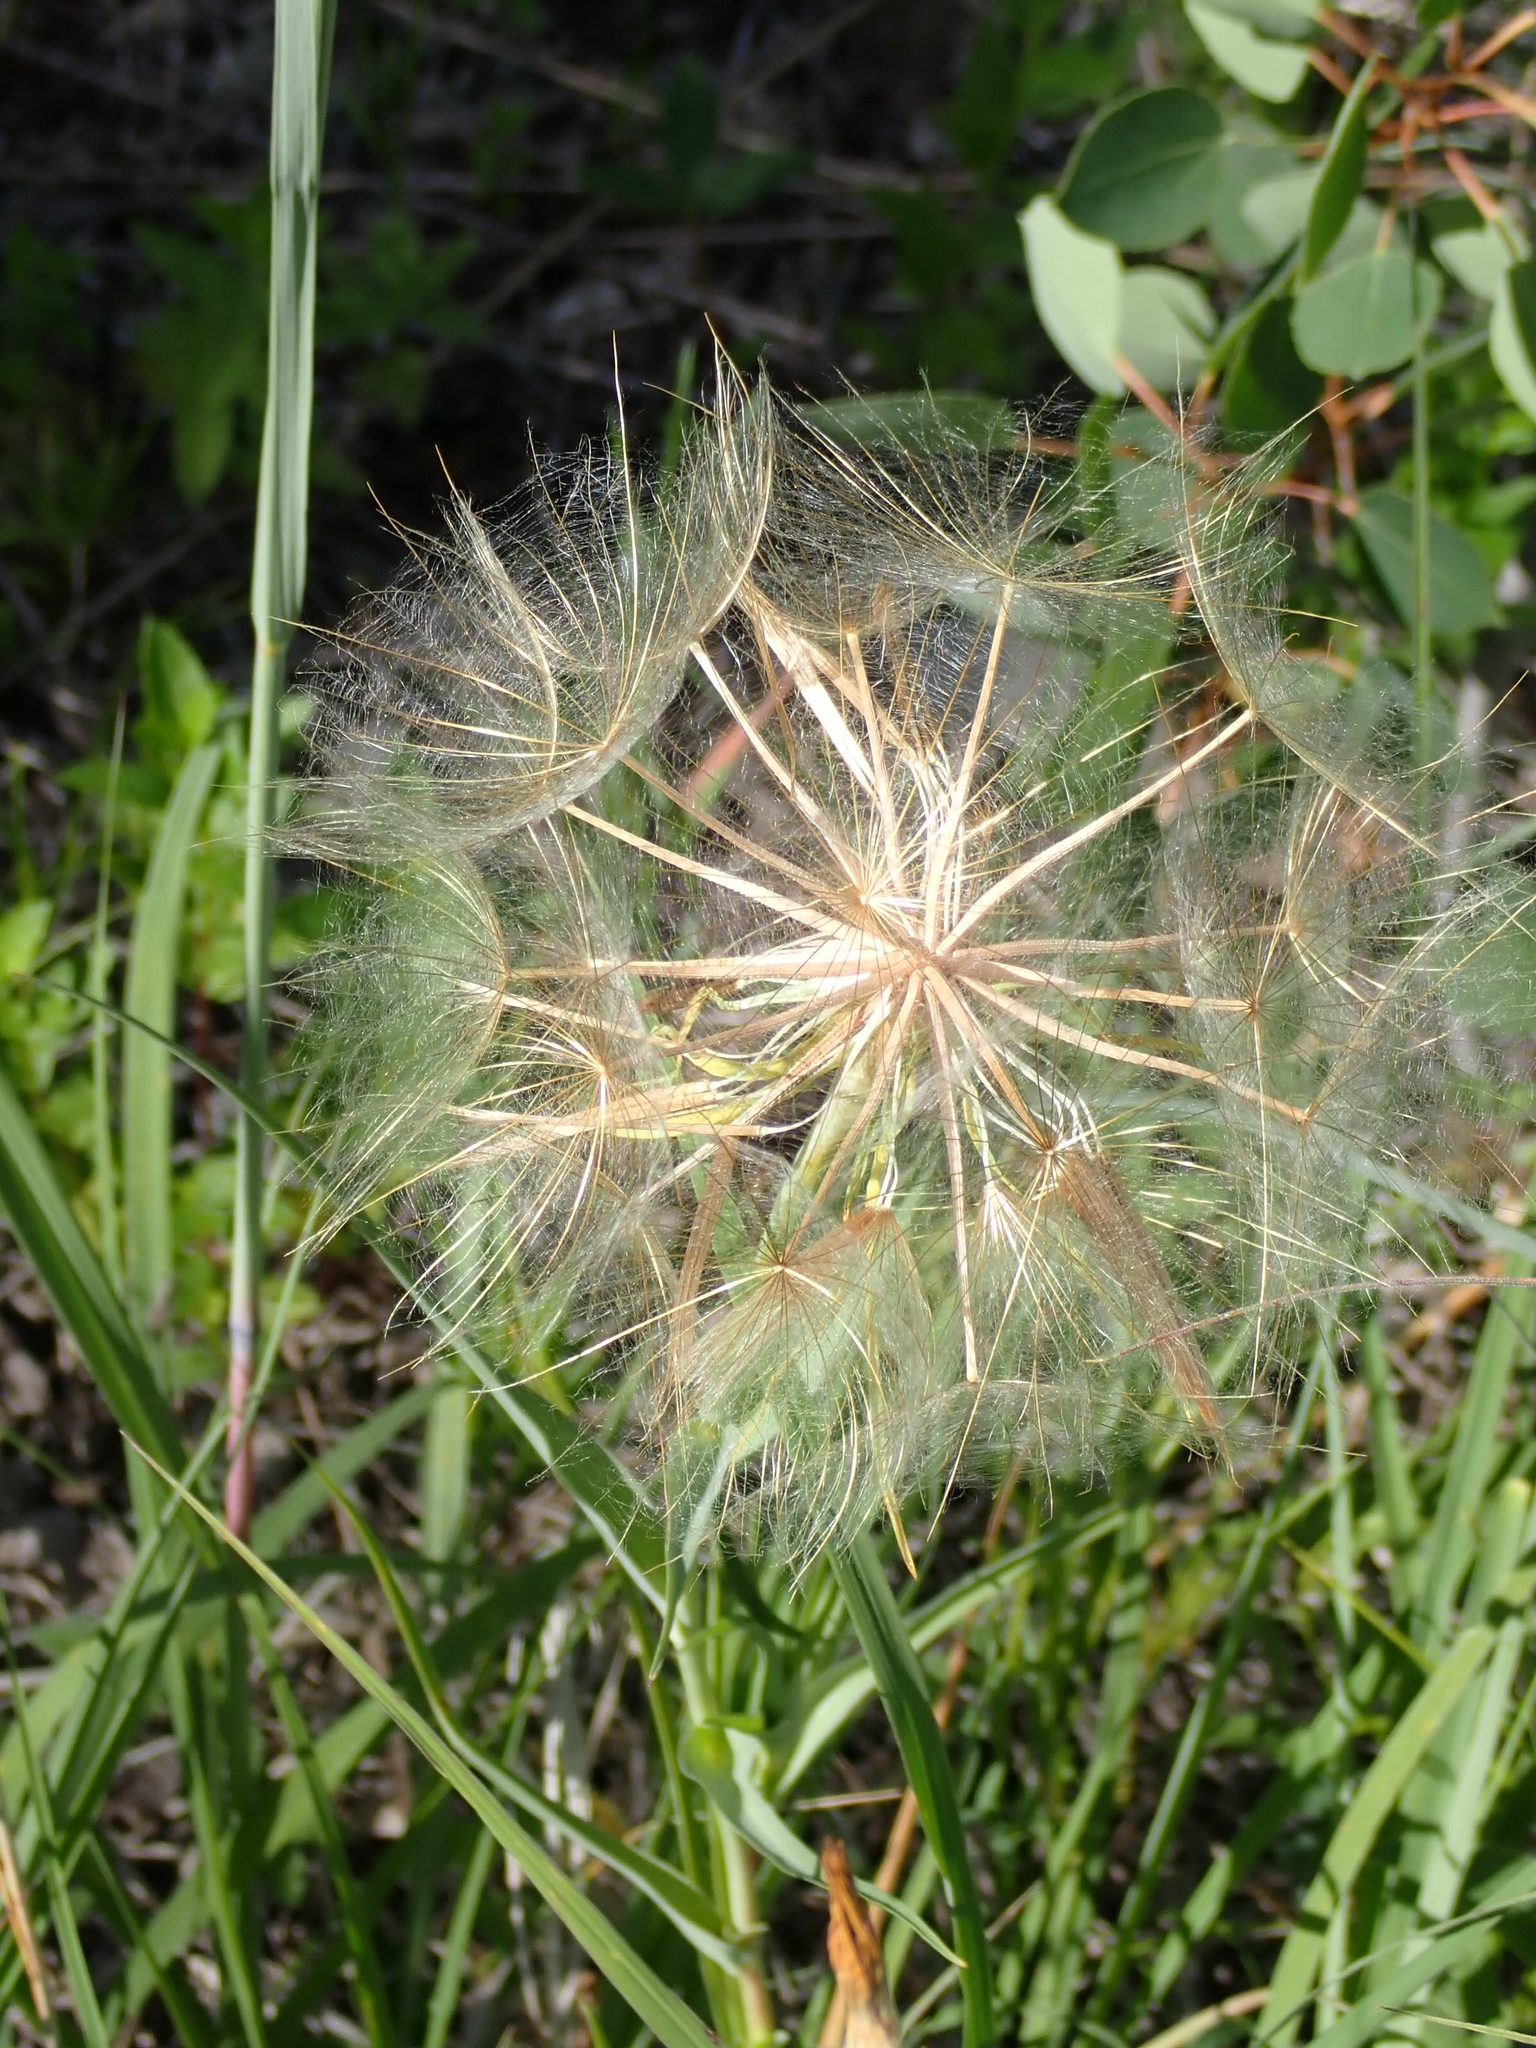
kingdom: Plantae
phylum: Tracheophyta
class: Magnoliopsida
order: Asterales
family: Asteraceae
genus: Tragopogon
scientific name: Tragopogon dubius
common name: Yellow salsify
